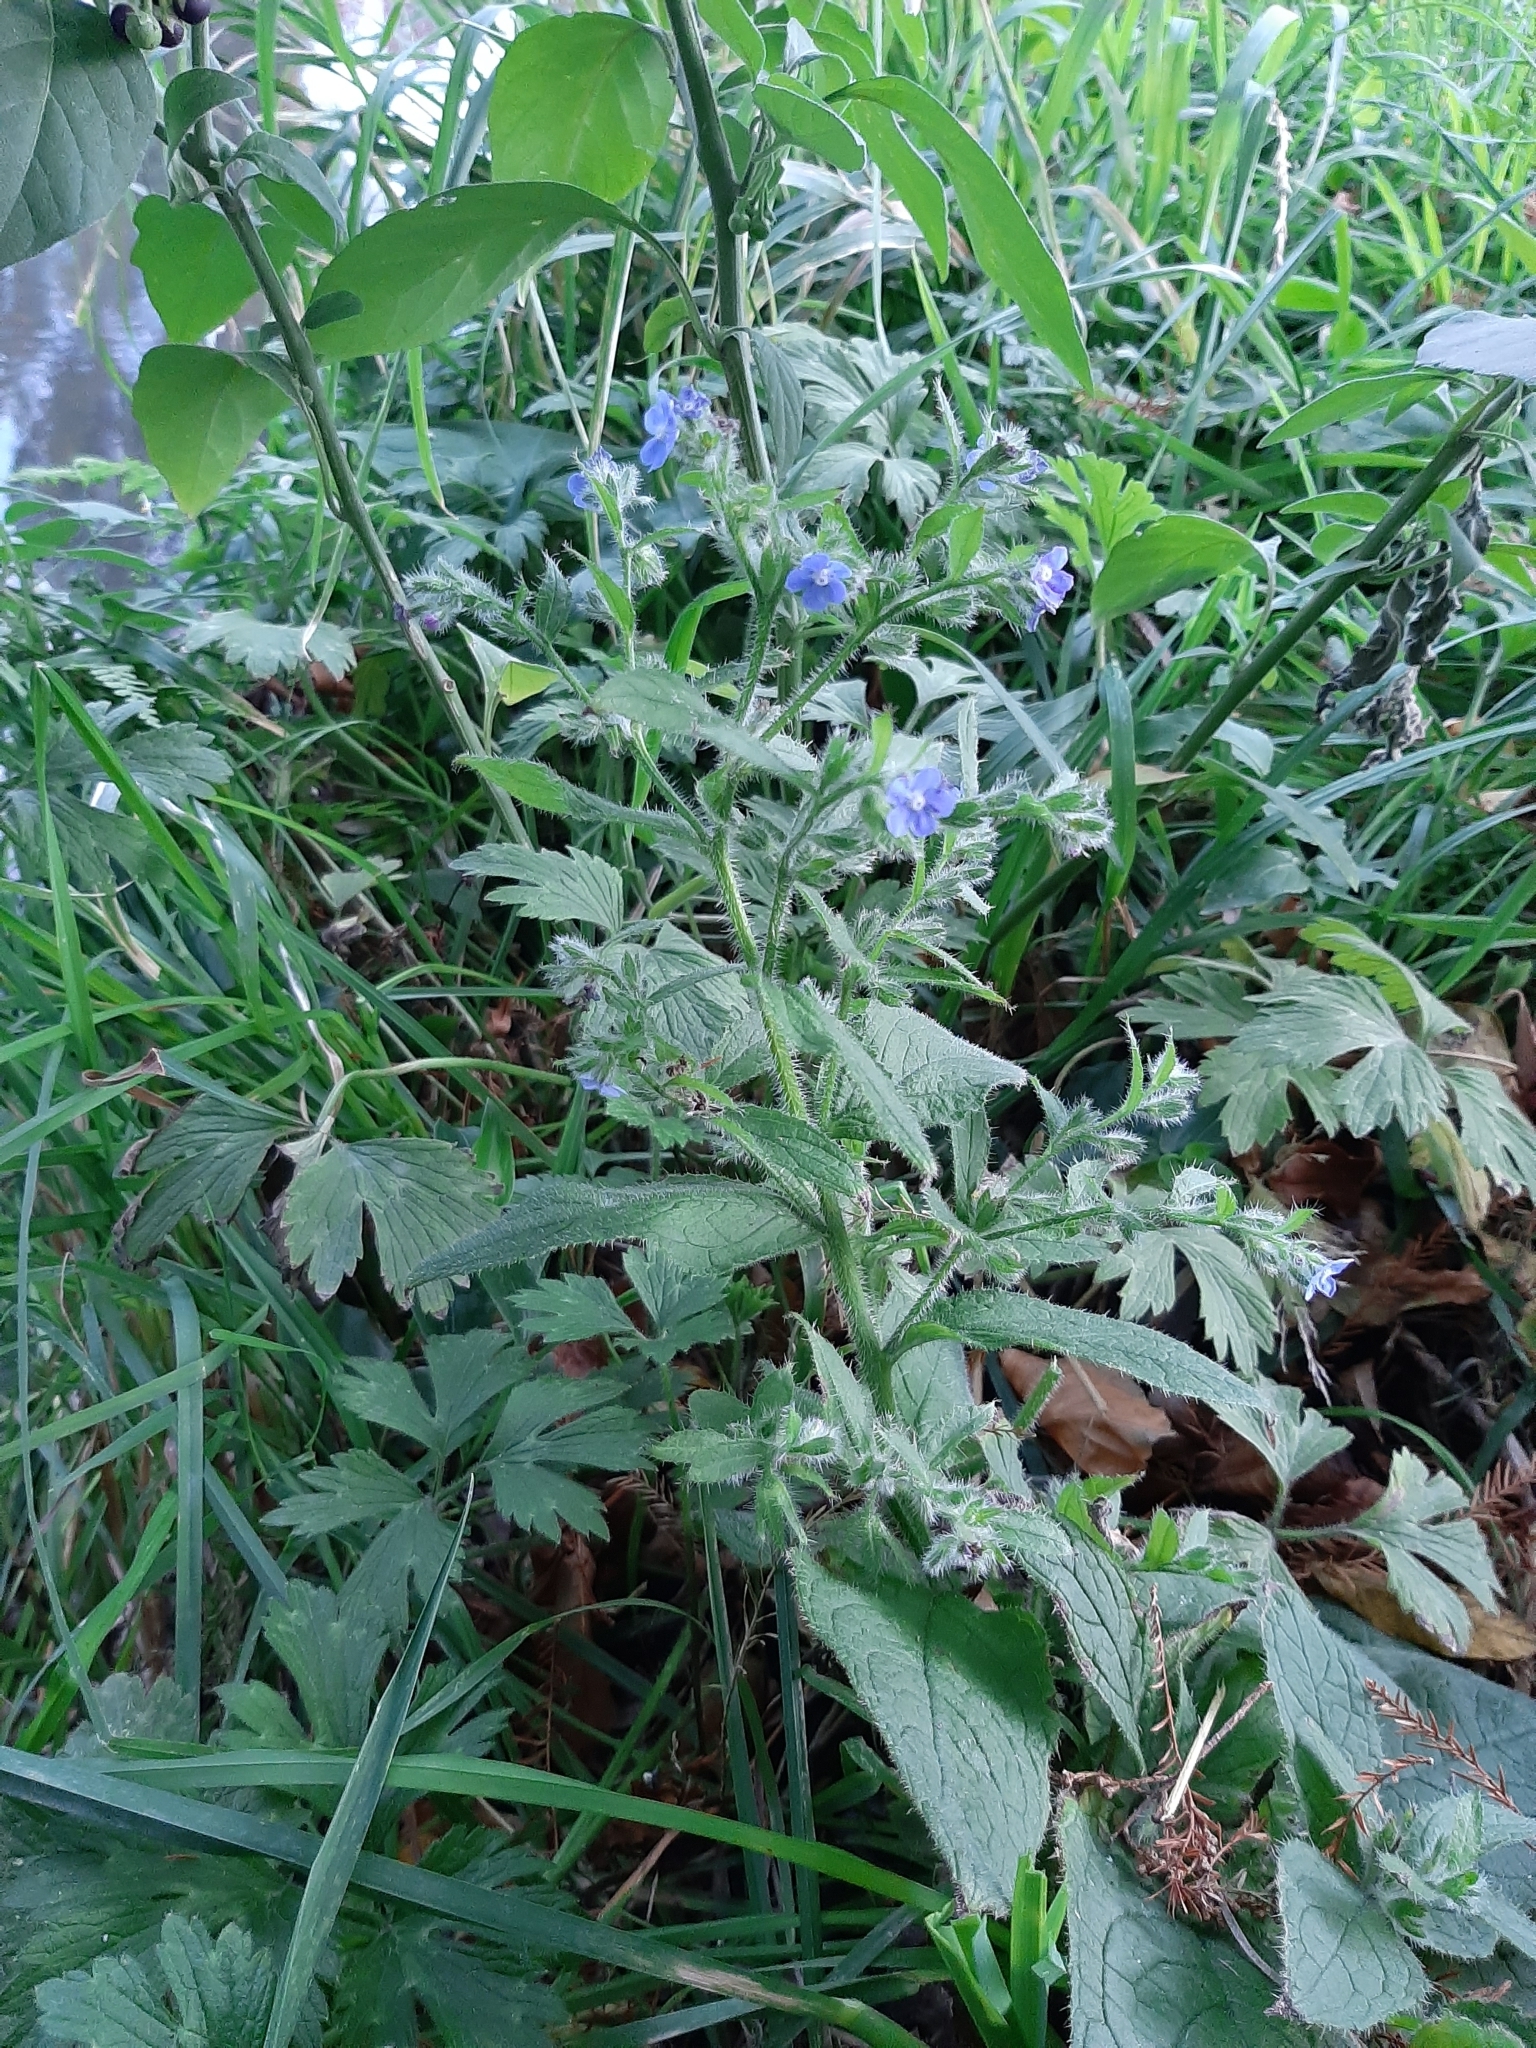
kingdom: Plantae
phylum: Tracheophyta
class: Magnoliopsida
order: Boraginales
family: Boraginaceae
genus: Pentaglottis
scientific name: Pentaglottis sempervirens
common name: Green alkanet
